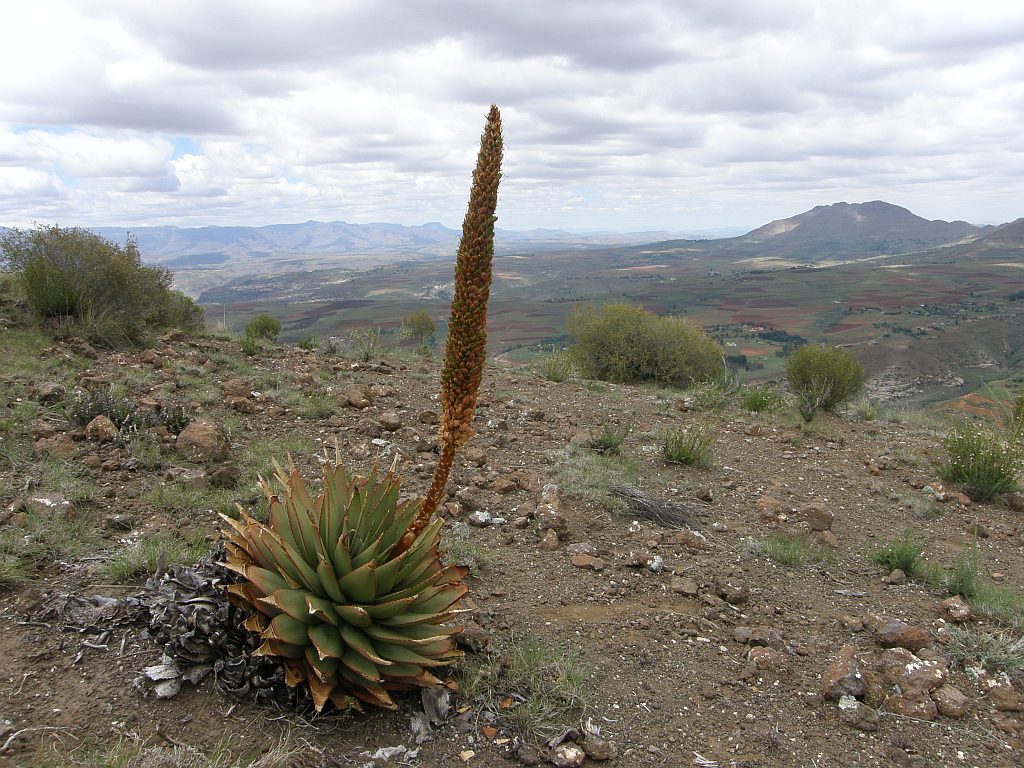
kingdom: Plantae
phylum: Tracheophyta
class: Liliopsida
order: Asparagales
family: Asphodelaceae
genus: Aloe
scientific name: Aloe broomii
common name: Berg alwyn
